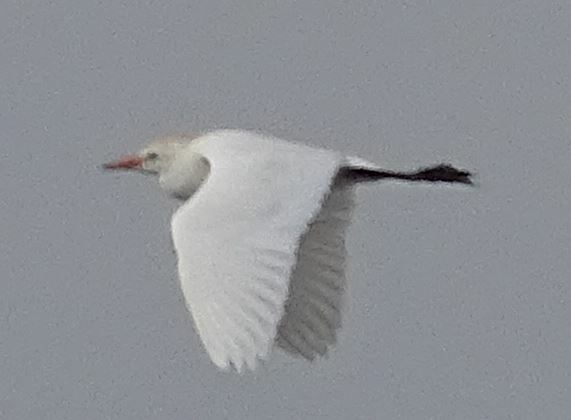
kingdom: Animalia
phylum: Chordata
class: Aves
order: Pelecaniformes
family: Ardeidae
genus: Bubulcus
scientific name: Bubulcus ibis
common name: Cattle egret
